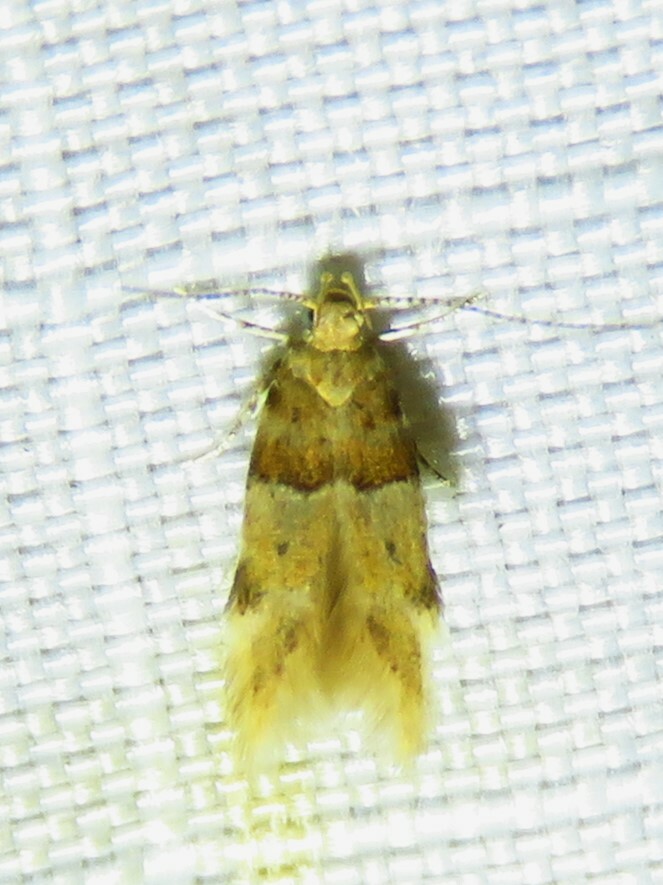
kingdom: Animalia
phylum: Arthropoda
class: Insecta
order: Lepidoptera
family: Gelechiidae
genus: Theisoa
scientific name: Theisoa constrictella
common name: Constricted twirler
